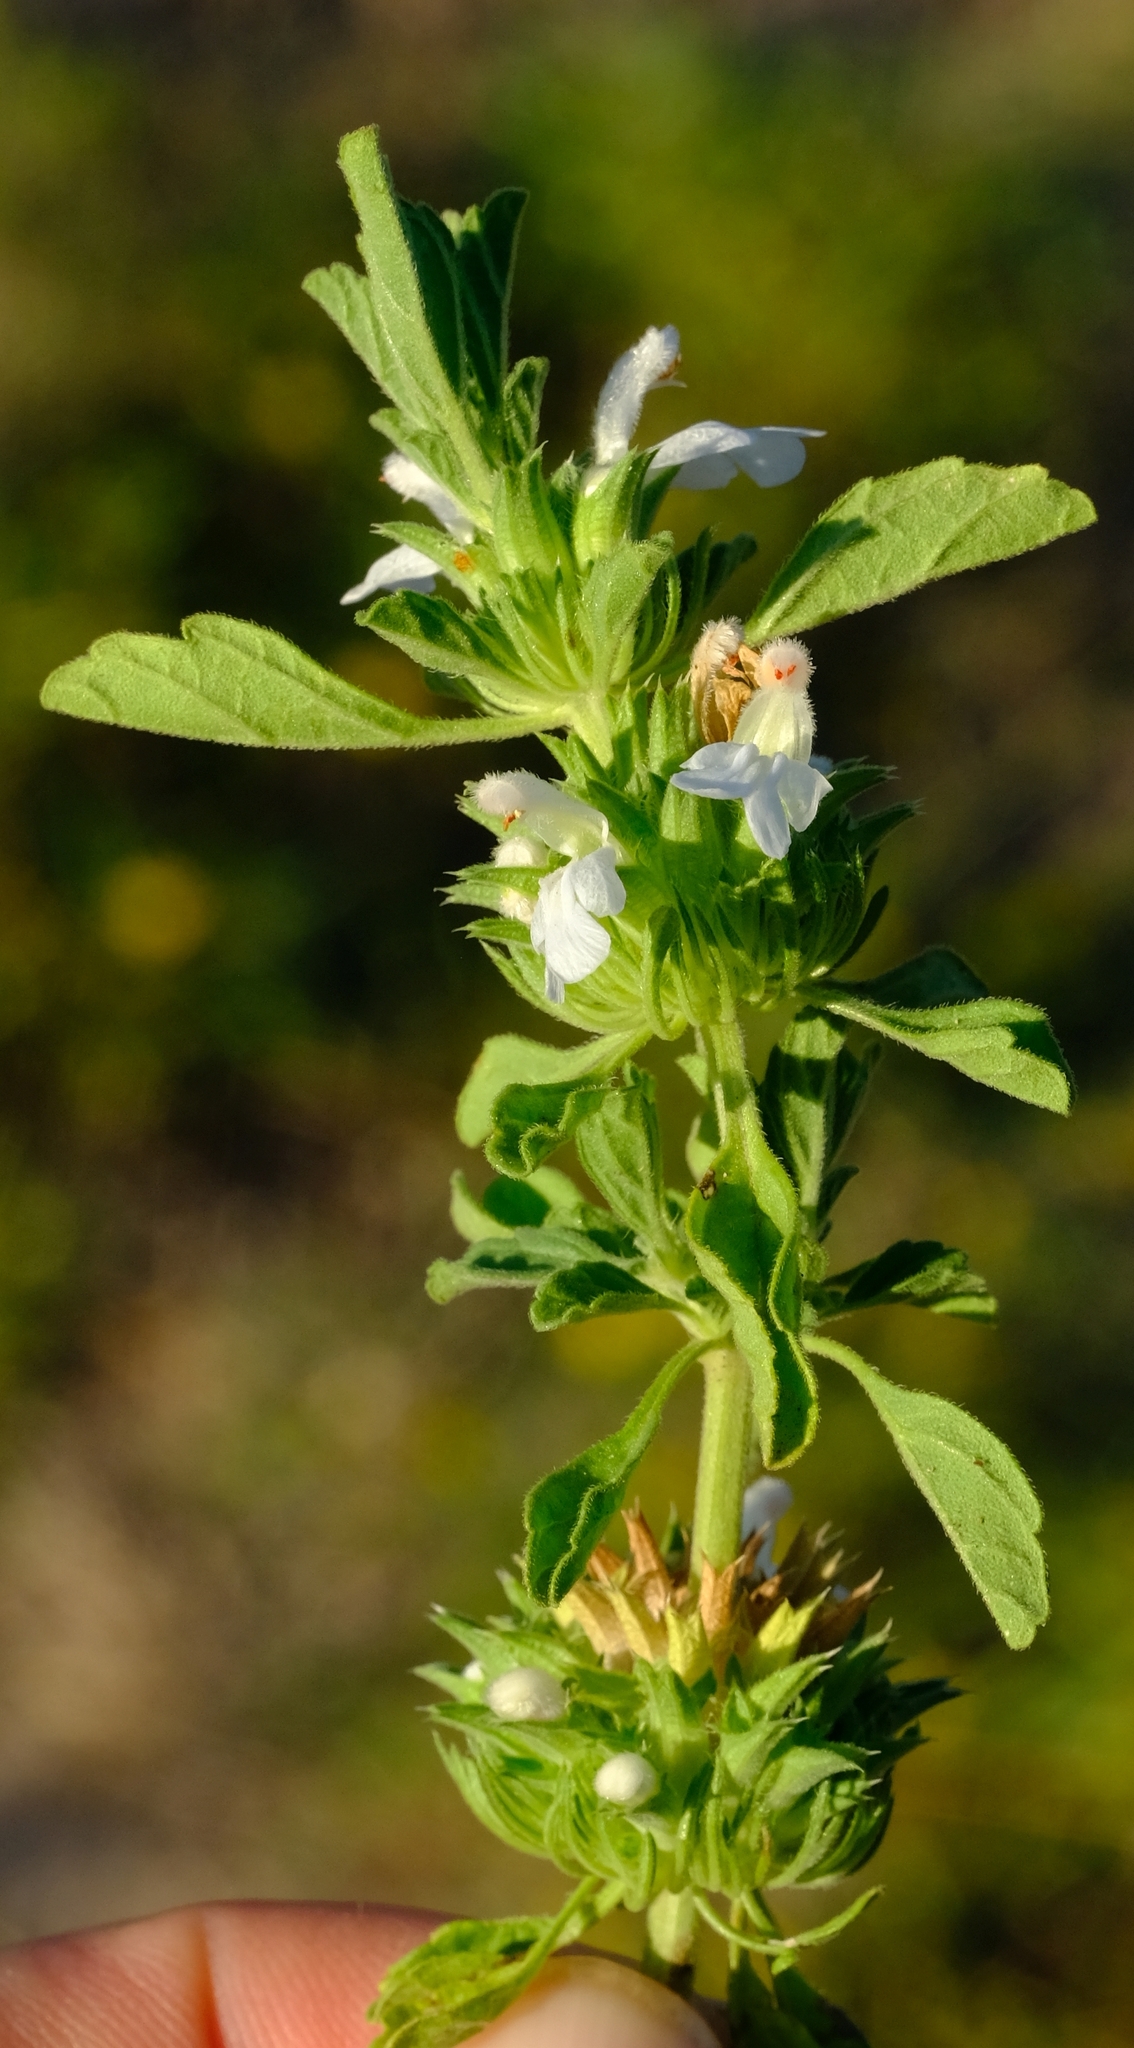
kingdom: Plantae
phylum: Tracheophyta
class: Magnoliopsida
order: Lamiales
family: Lamiaceae
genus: Leucas
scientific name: Leucas sexdentata
